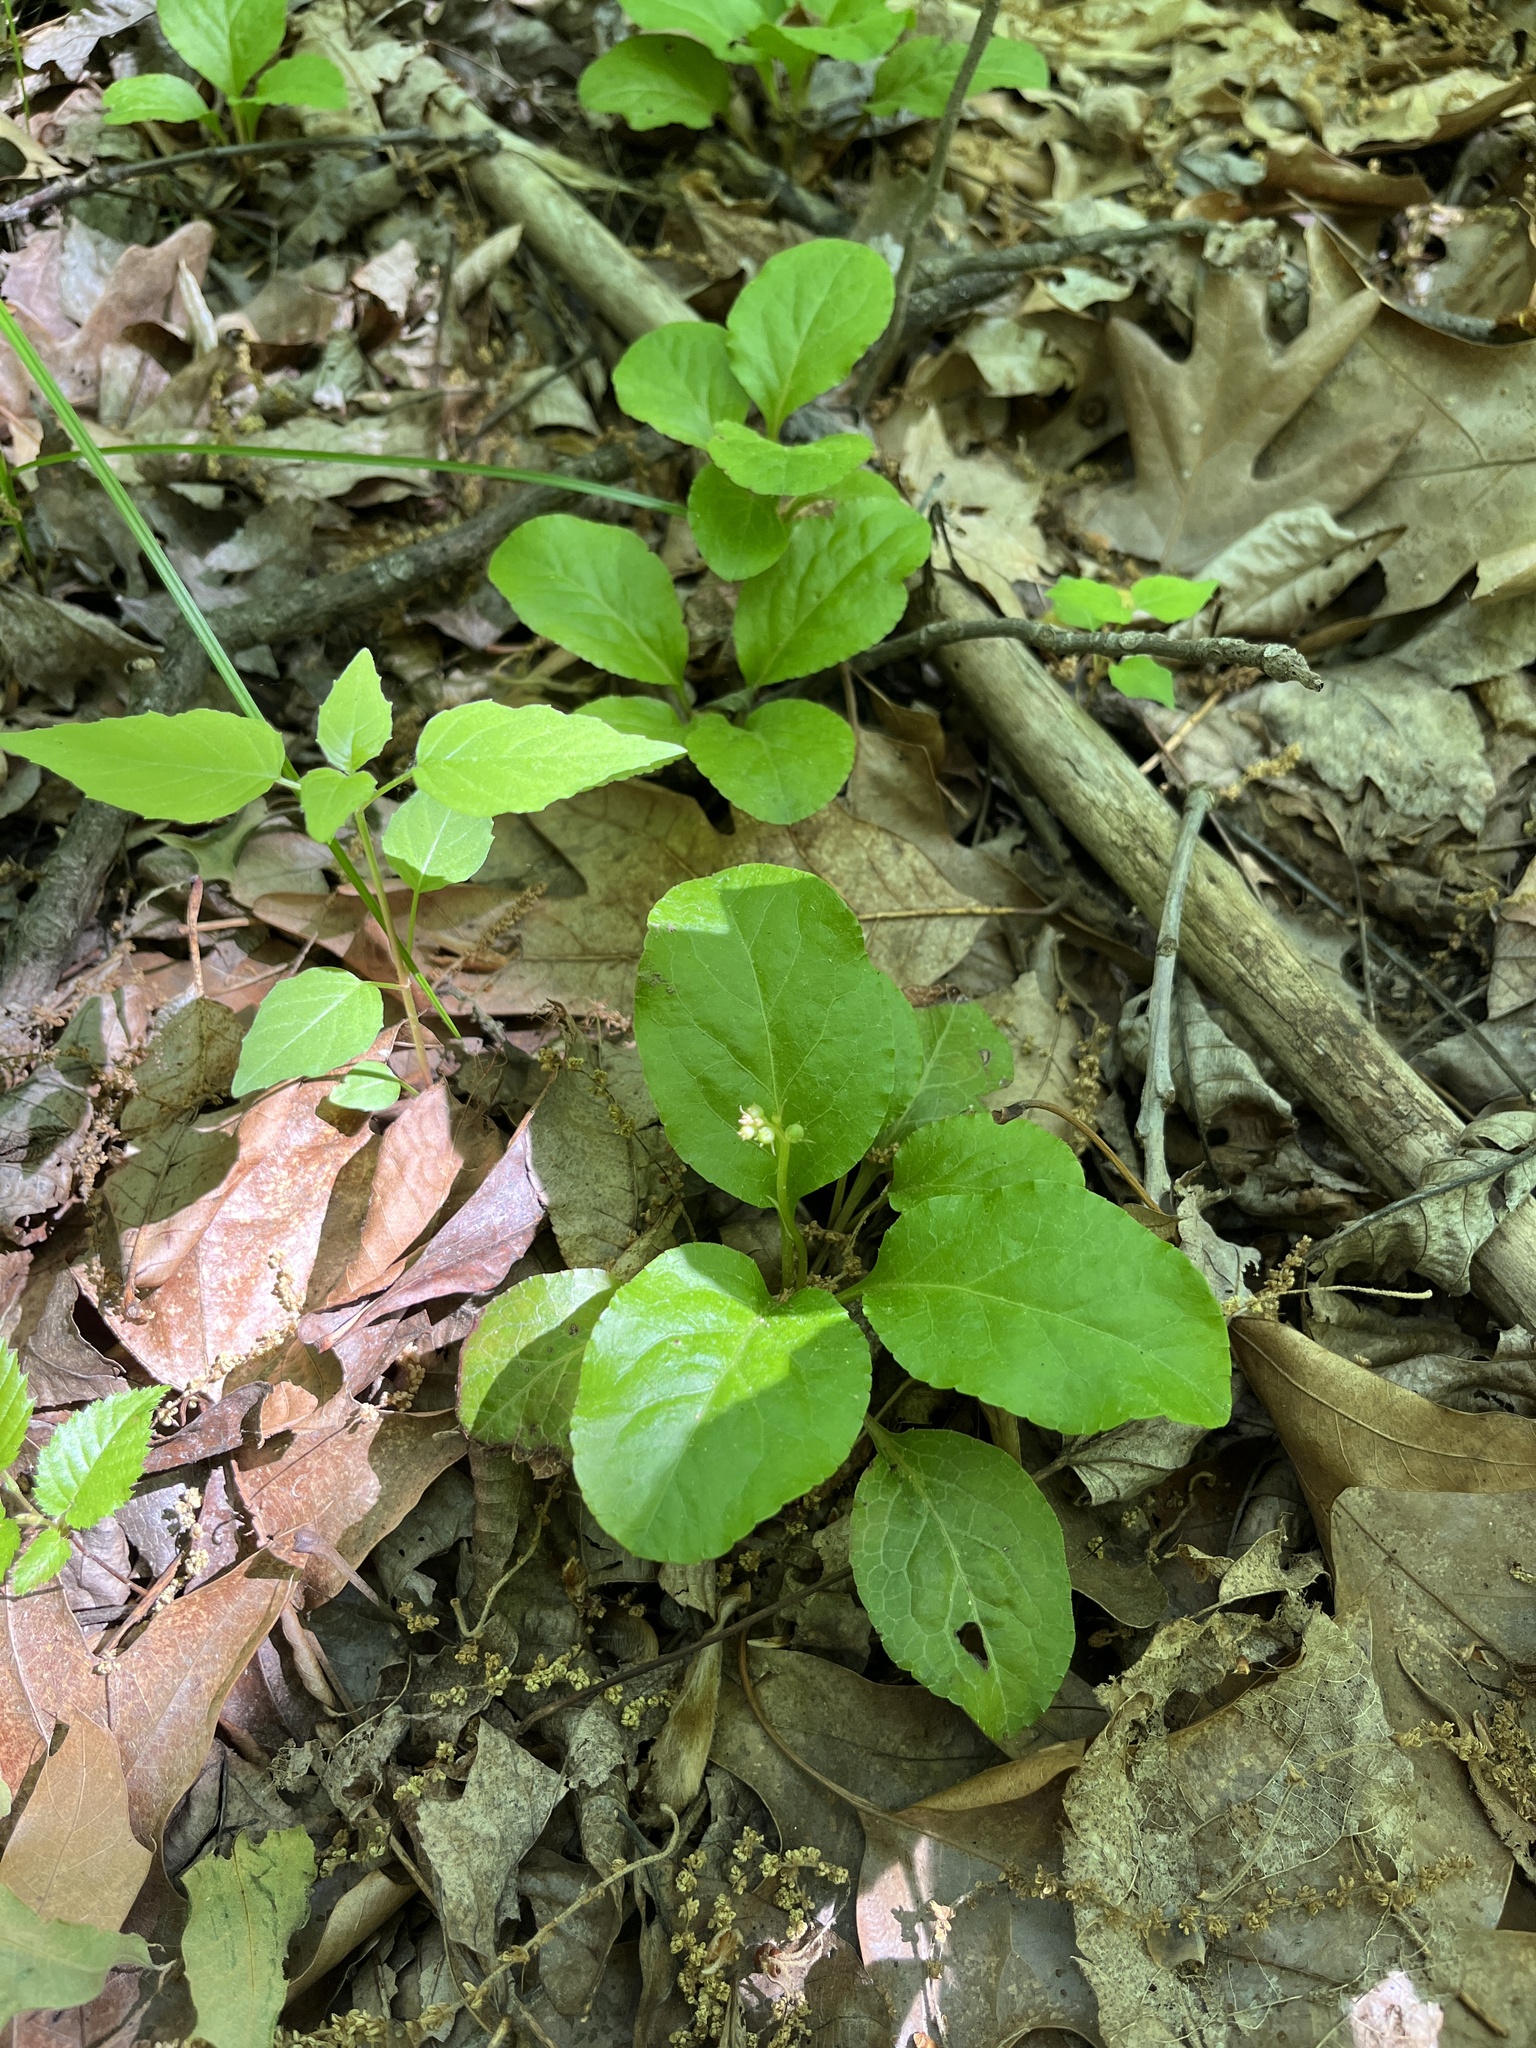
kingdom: Plantae
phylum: Tracheophyta
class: Magnoliopsida
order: Ericales
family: Ericaceae
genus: Pyrola
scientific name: Pyrola elliptica
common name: Shinleaf
